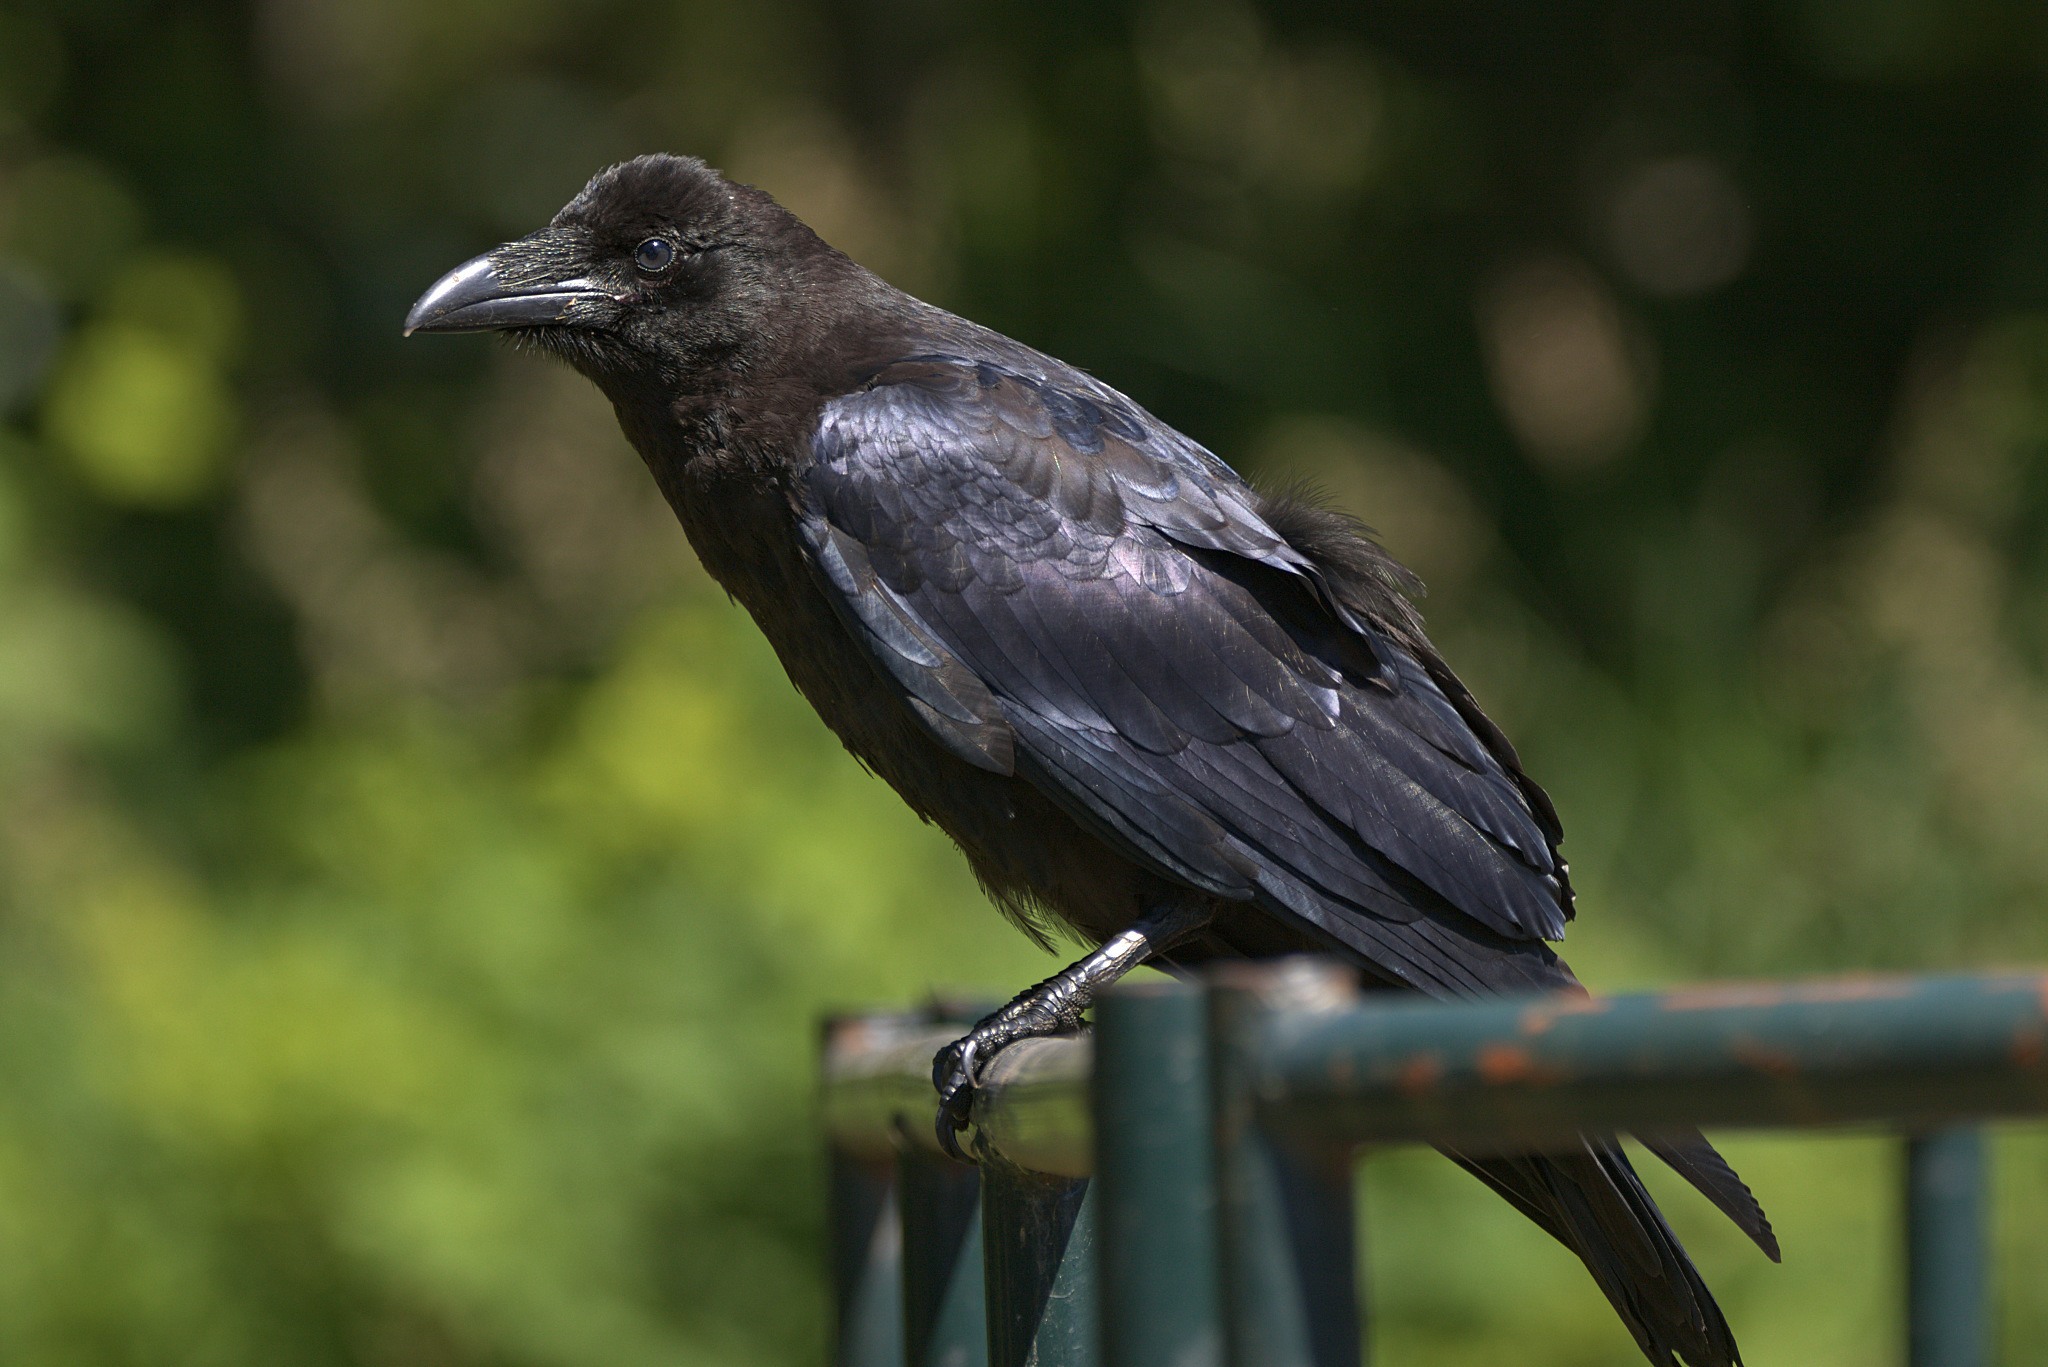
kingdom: Animalia
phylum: Chordata
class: Aves
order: Passeriformes
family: Corvidae
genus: Corvus
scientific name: Corvus corax
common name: Common raven
